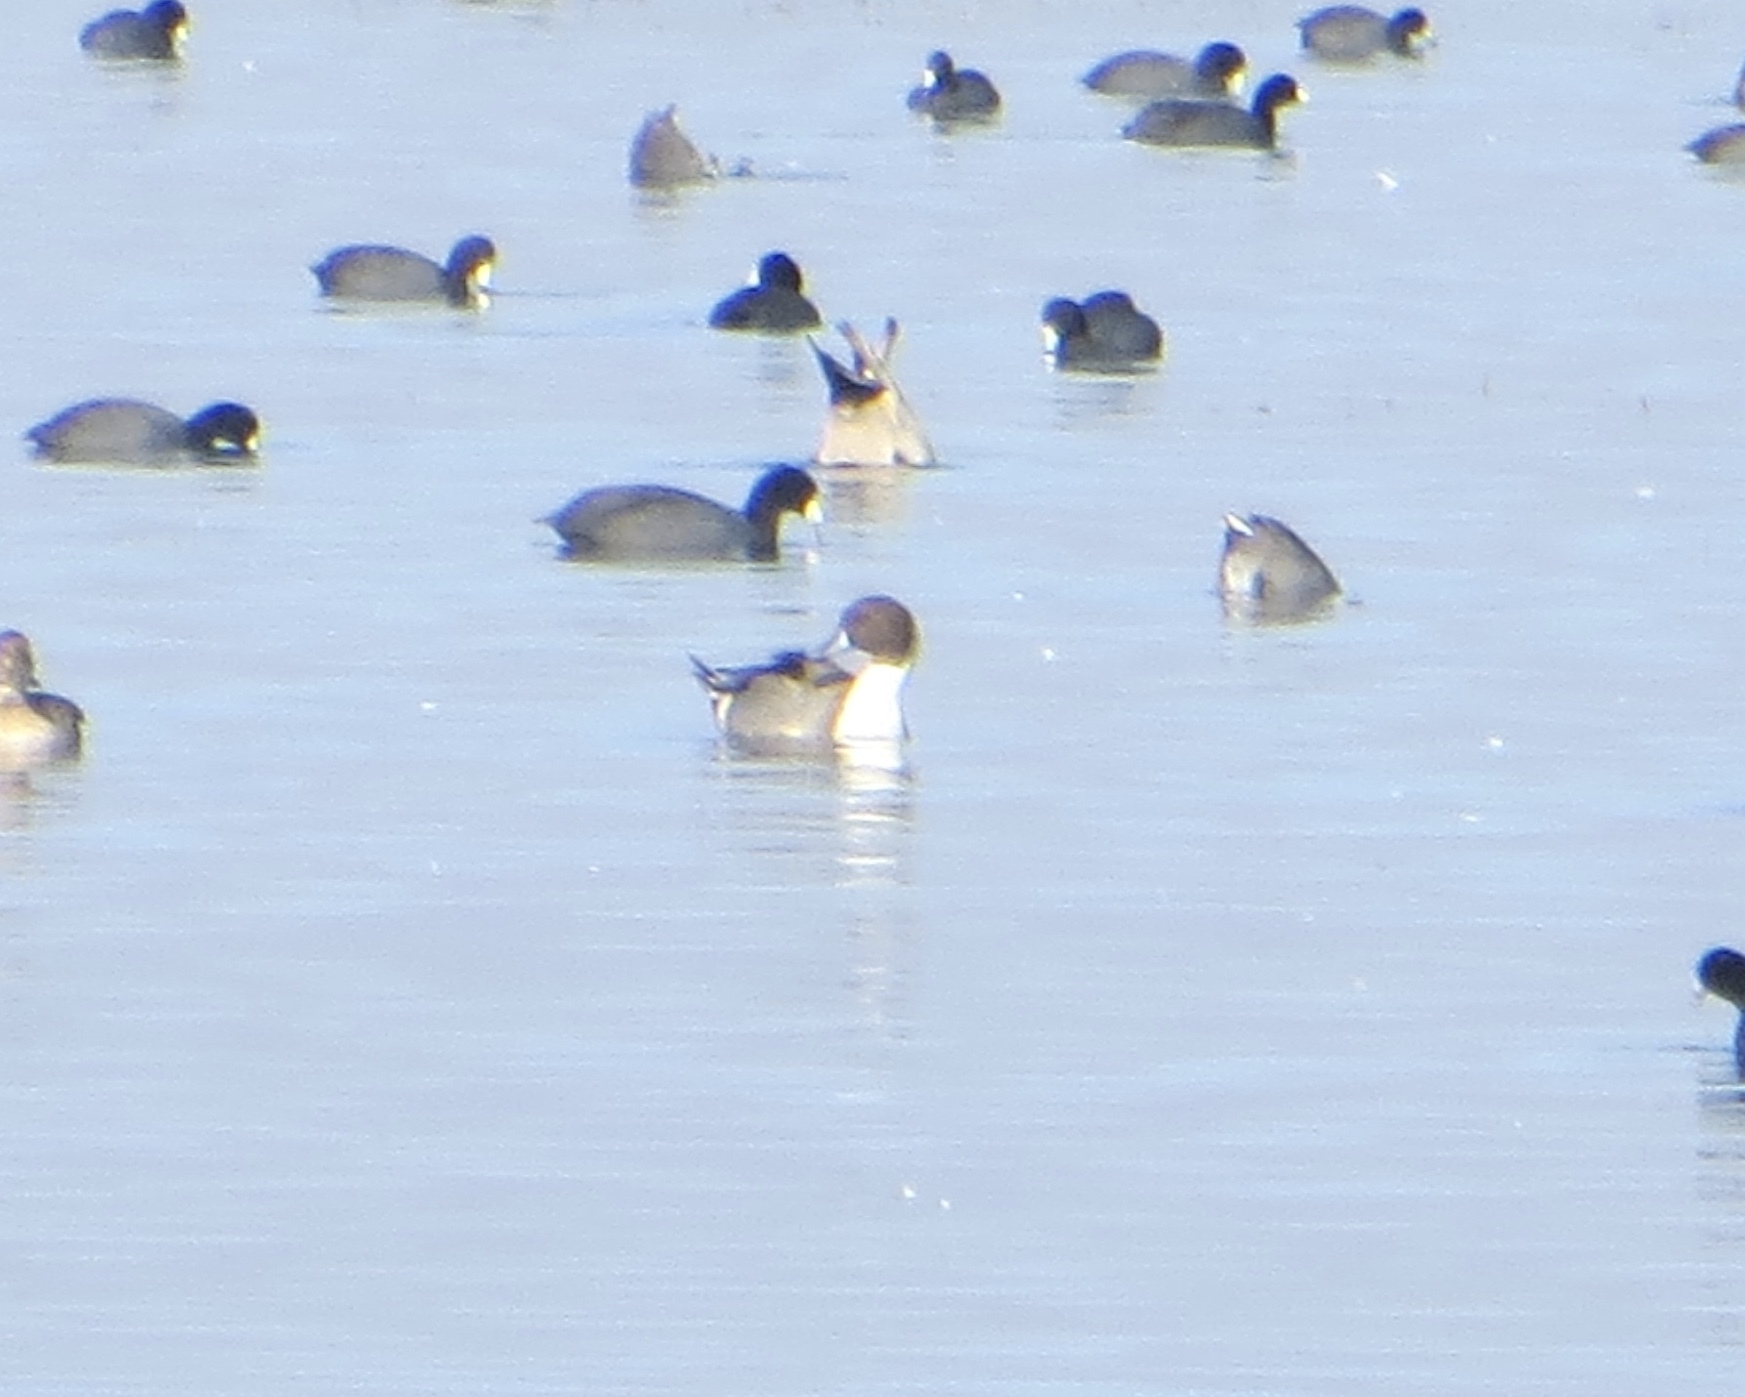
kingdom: Animalia
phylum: Chordata
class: Aves
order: Anseriformes
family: Anatidae
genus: Anas
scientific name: Anas acuta
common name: Northern pintail
